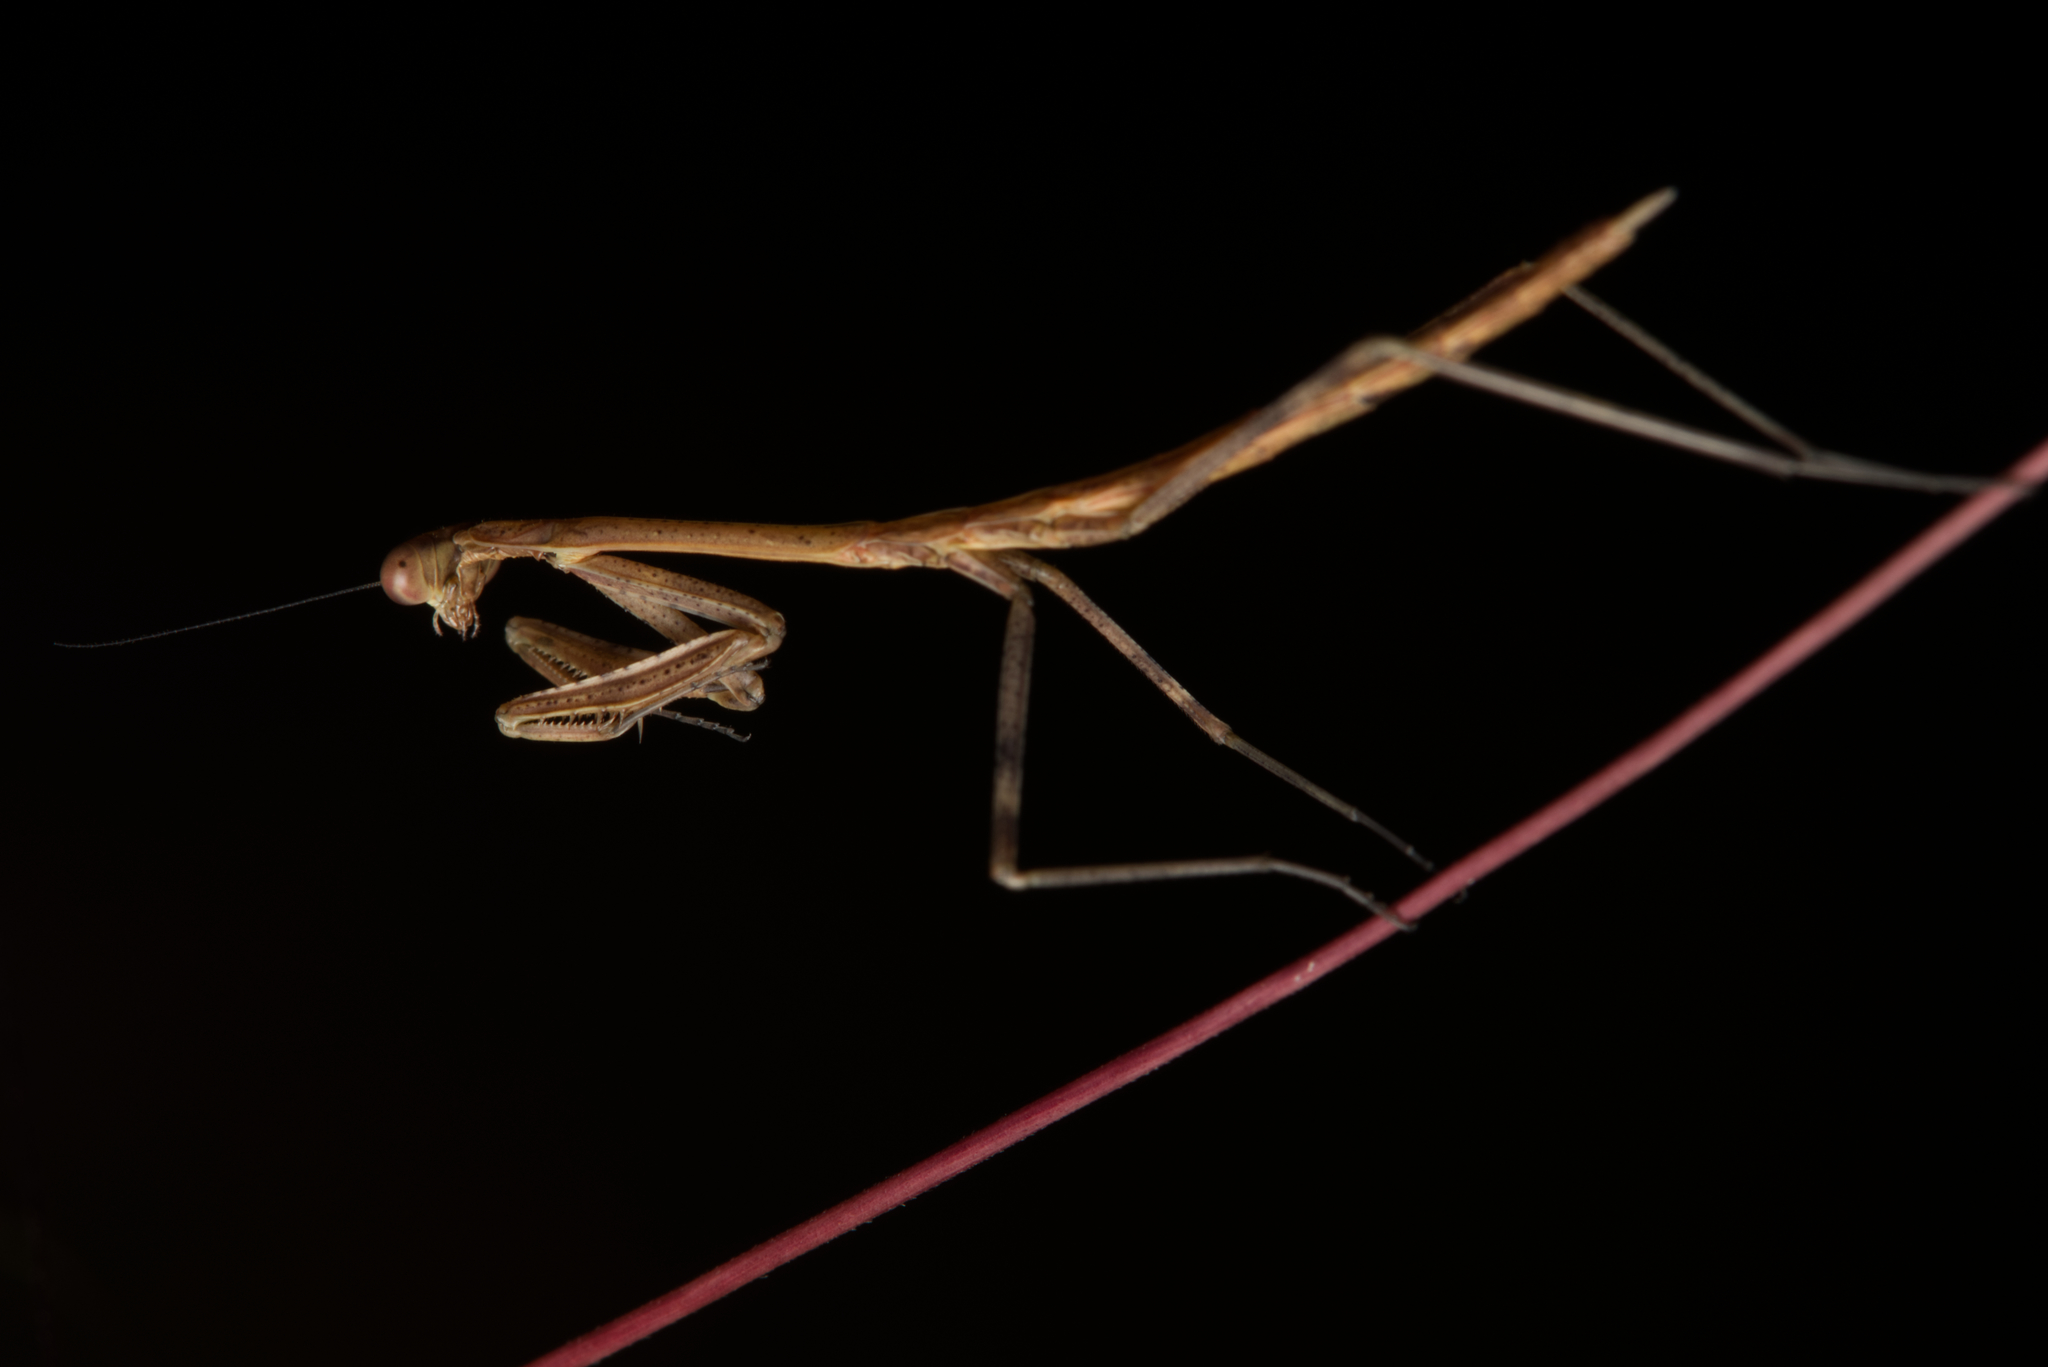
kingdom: Animalia
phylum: Arthropoda
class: Insecta
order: Mantodea
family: Mantidae
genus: Archimantis
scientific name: Archimantis latistyla
